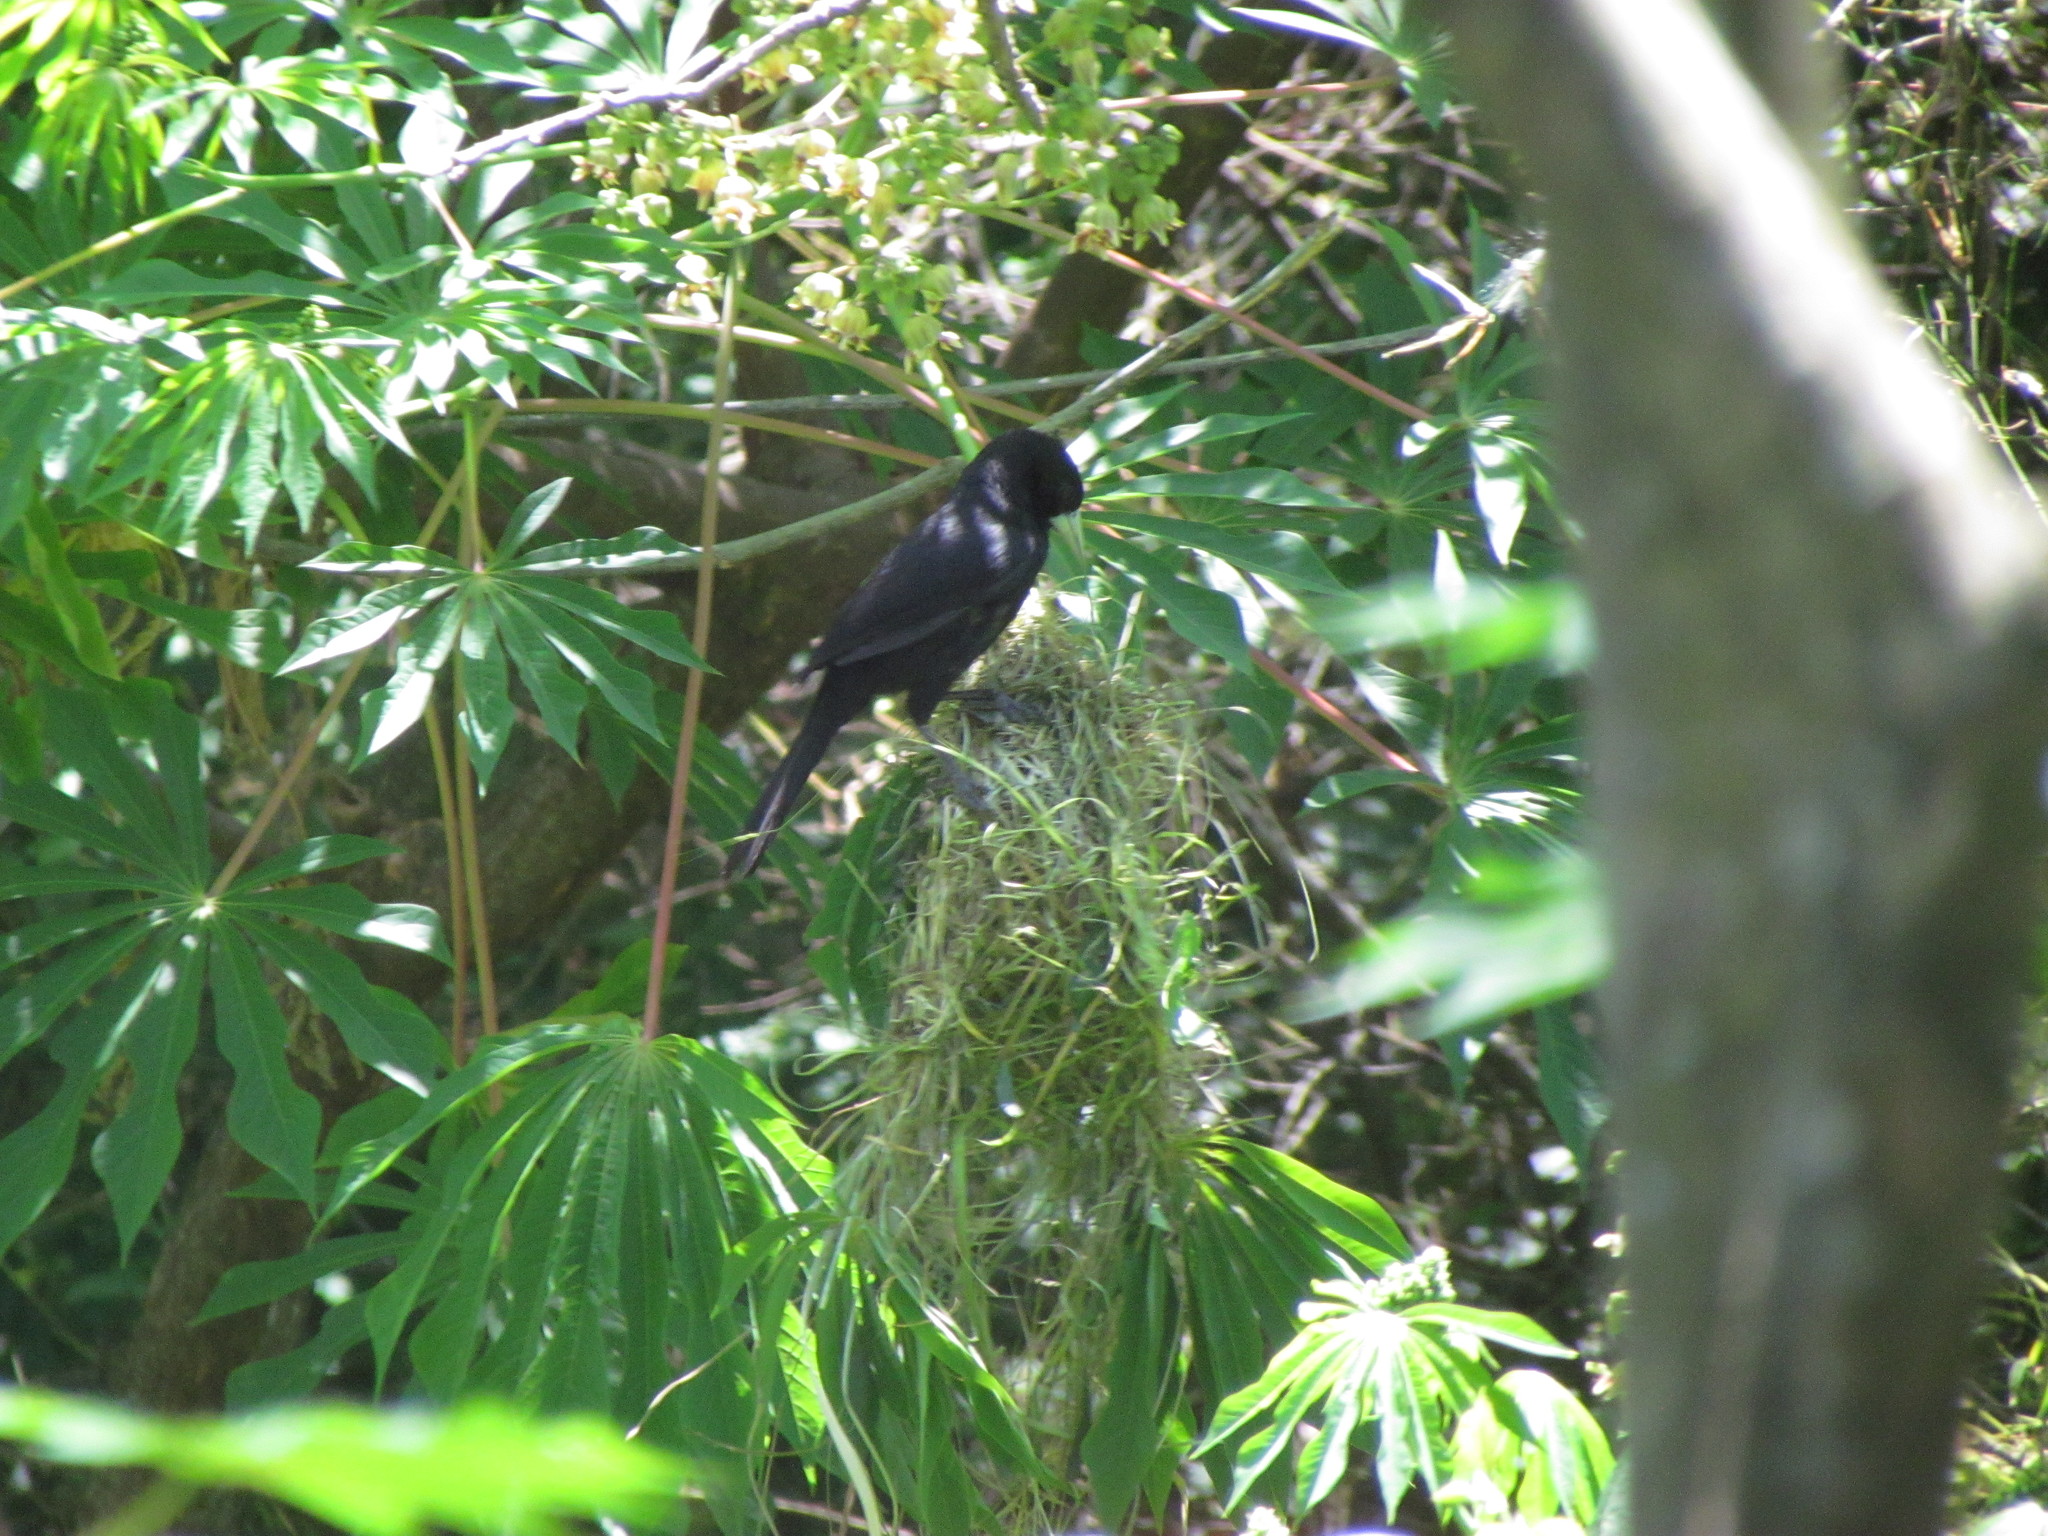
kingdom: Animalia
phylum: Chordata
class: Aves
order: Passeriformes
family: Icteridae
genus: Cacicus
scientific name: Cacicus solitarius
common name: Solitary cacique
